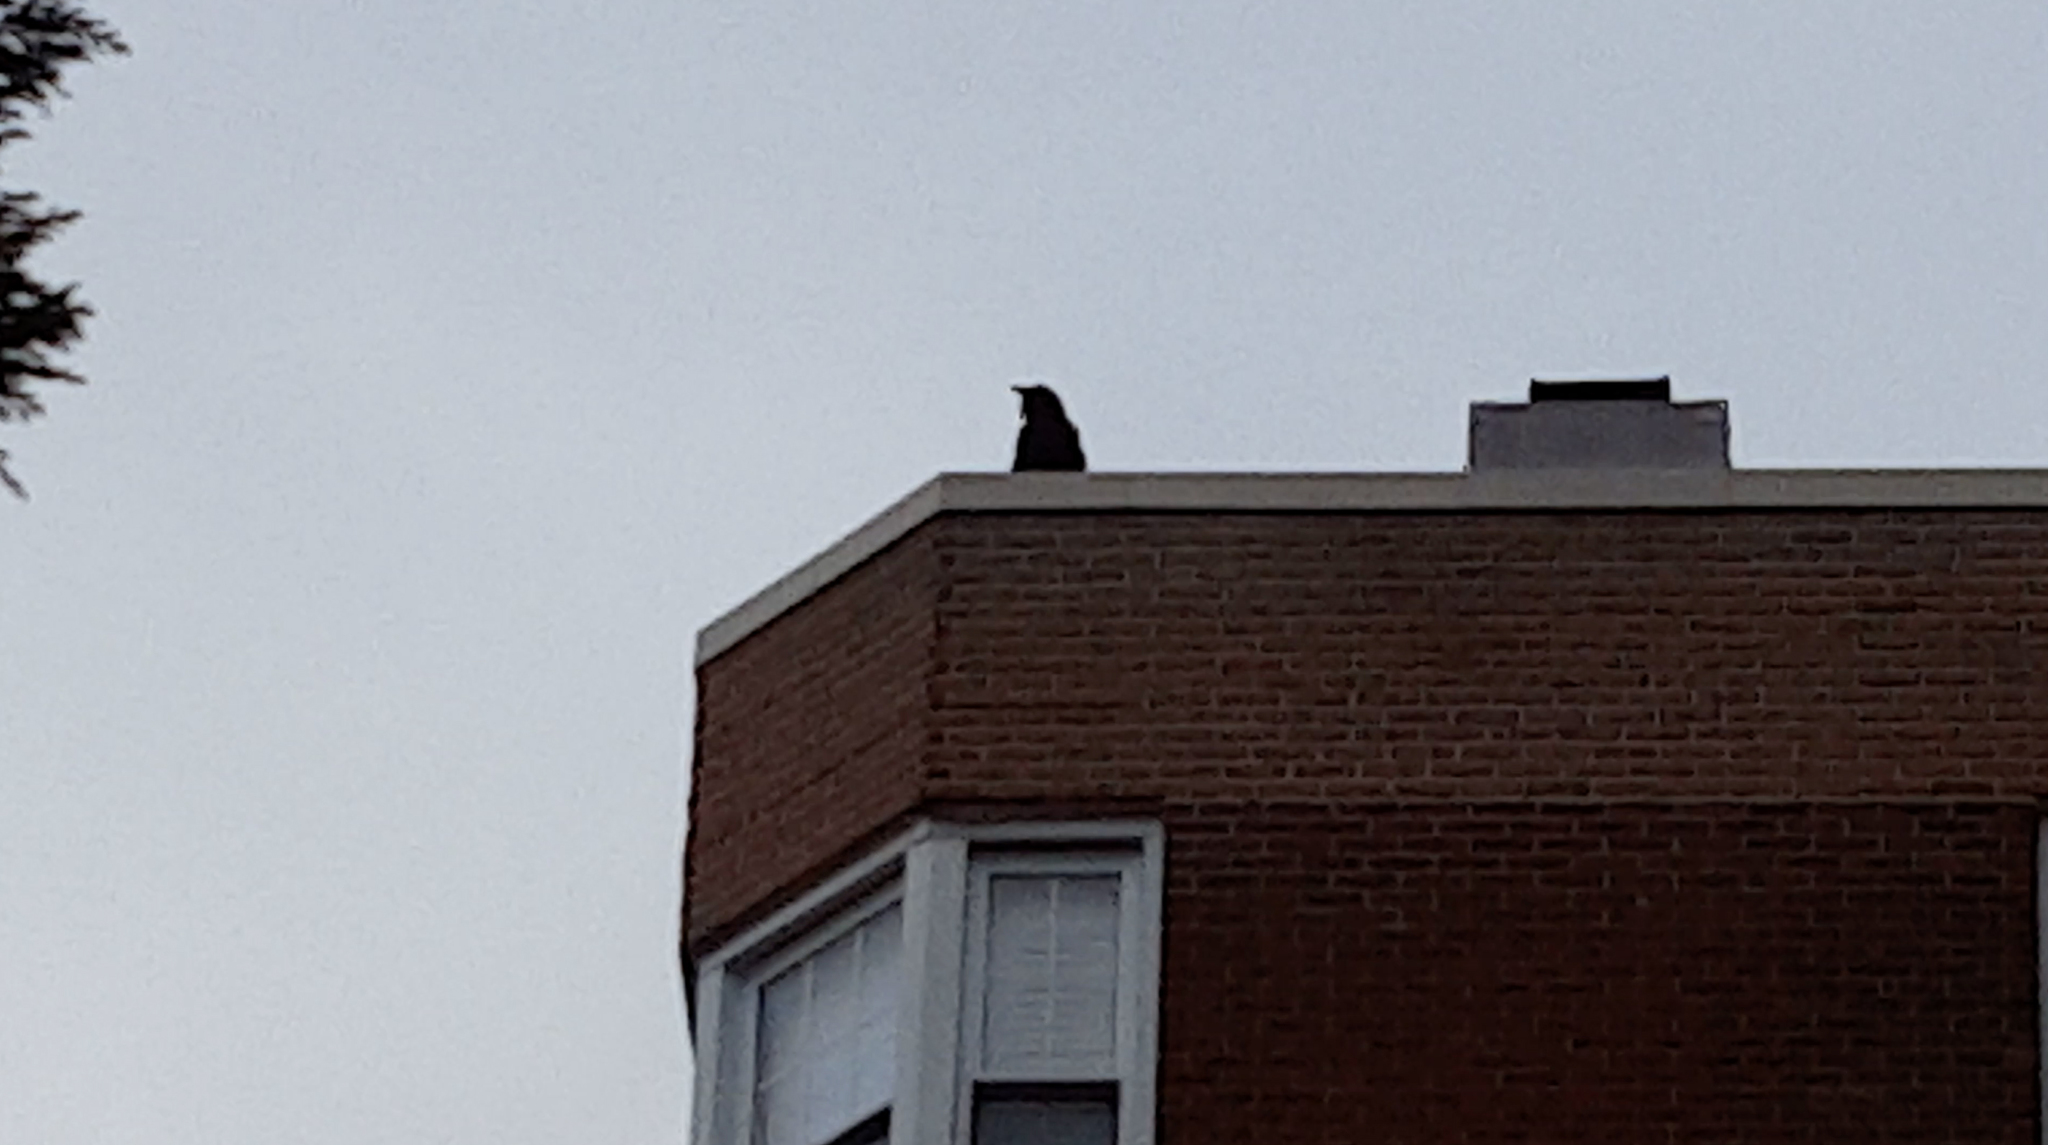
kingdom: Animalia
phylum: Chordata
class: Aves
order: Passeriformes
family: Corvidae
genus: Corvus
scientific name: Corvus corax
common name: Common raven
